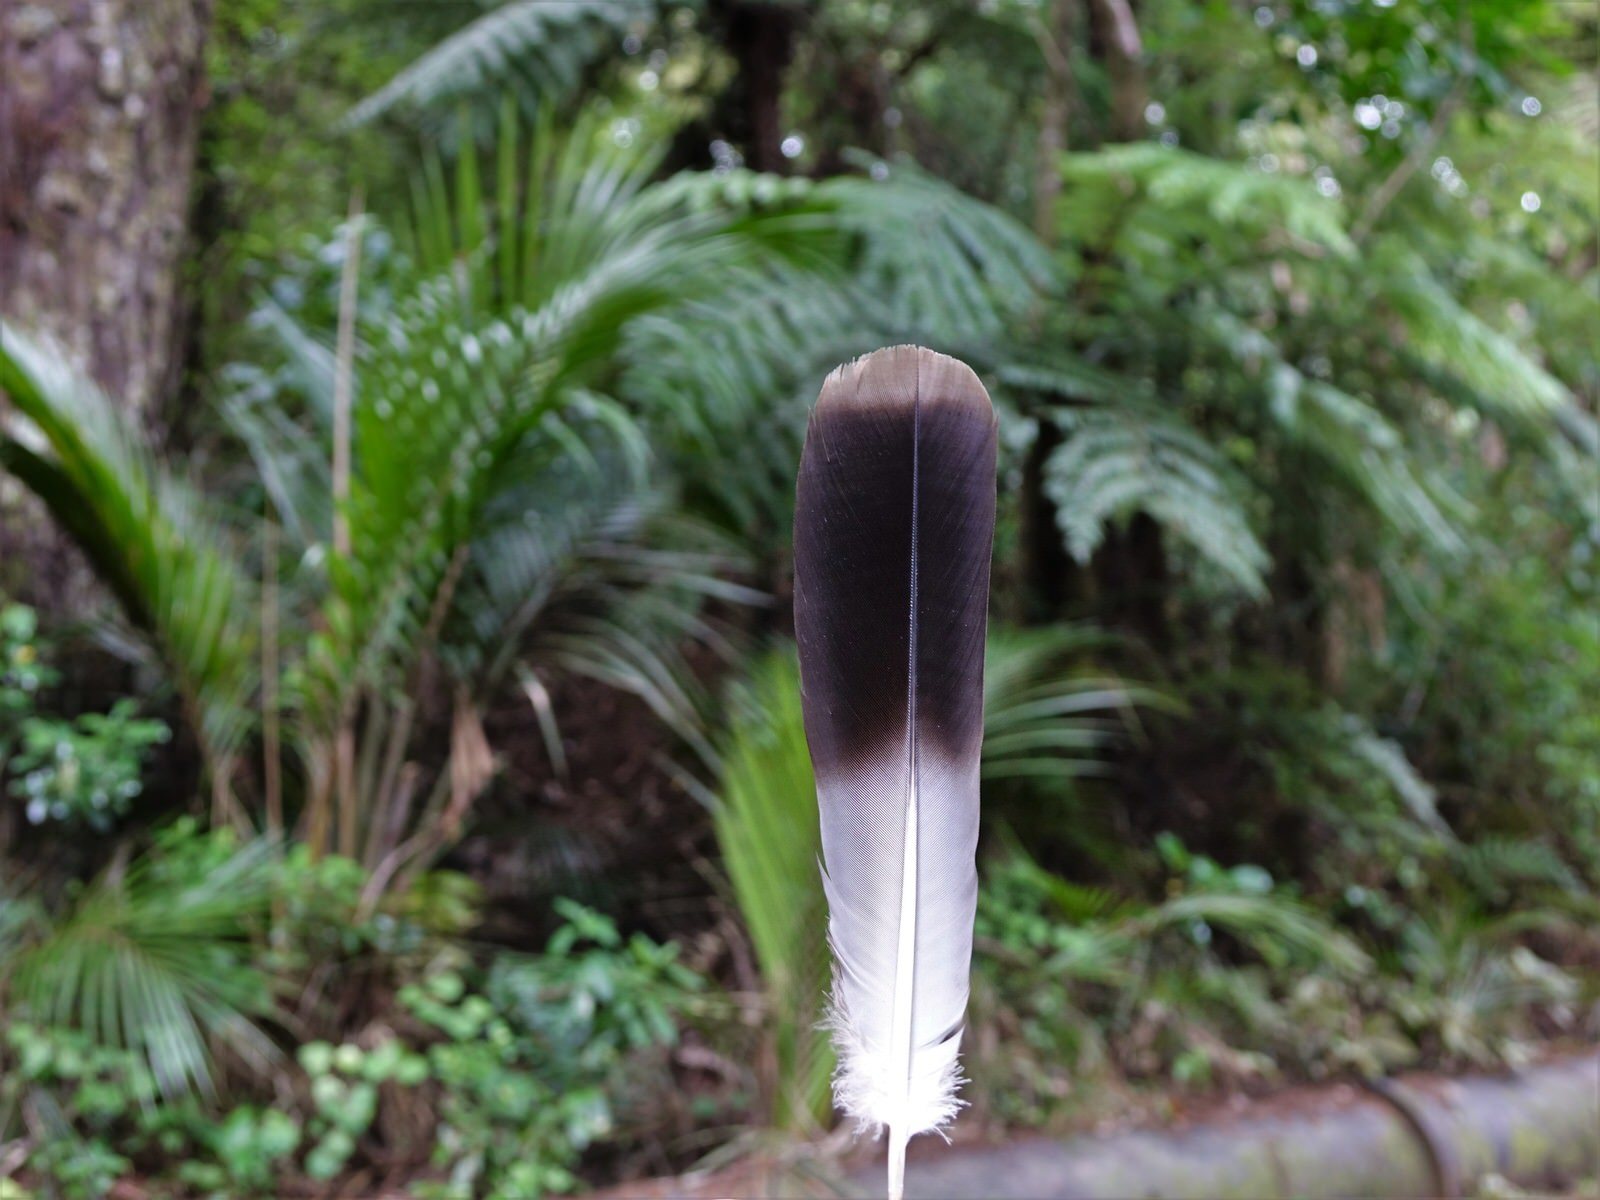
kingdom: Animalia
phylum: Chordata
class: Aves
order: Columbiformes
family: Columbidae
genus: Hemiphaga
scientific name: Hemiphaga novaeseelandiae
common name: New zealand pigeon
